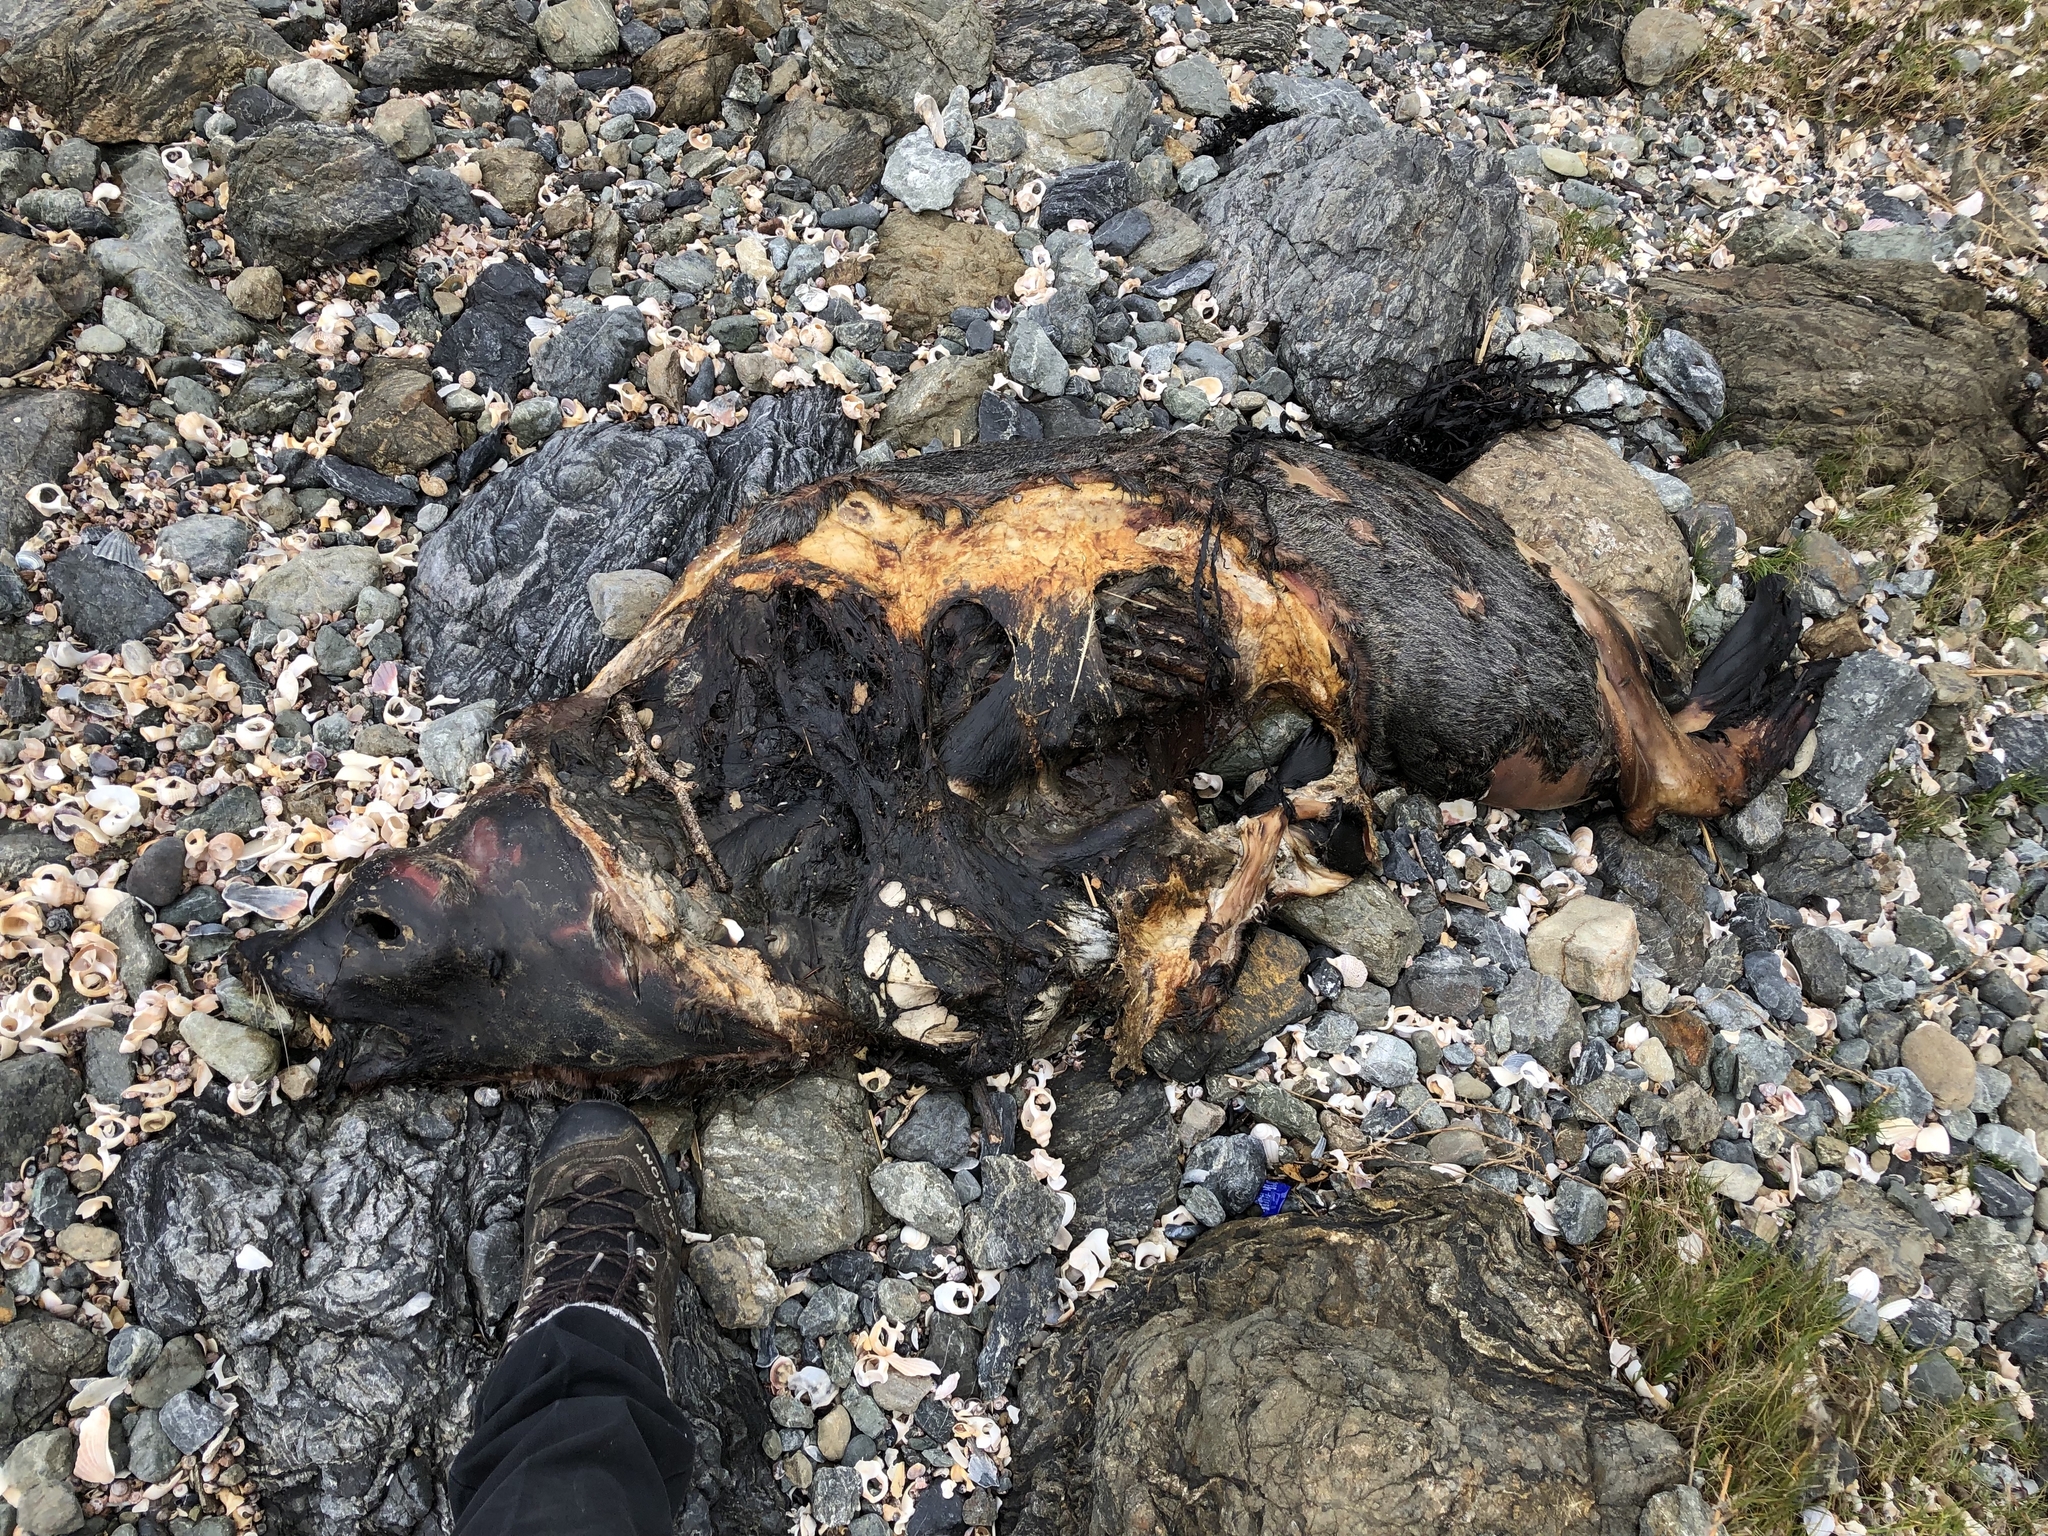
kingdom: Animalia
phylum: Chordata
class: Mammalia
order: Carnivora
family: Otariidae
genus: Arctocephalus
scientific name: Arctocephalus forsteri
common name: New zealand fur seal
